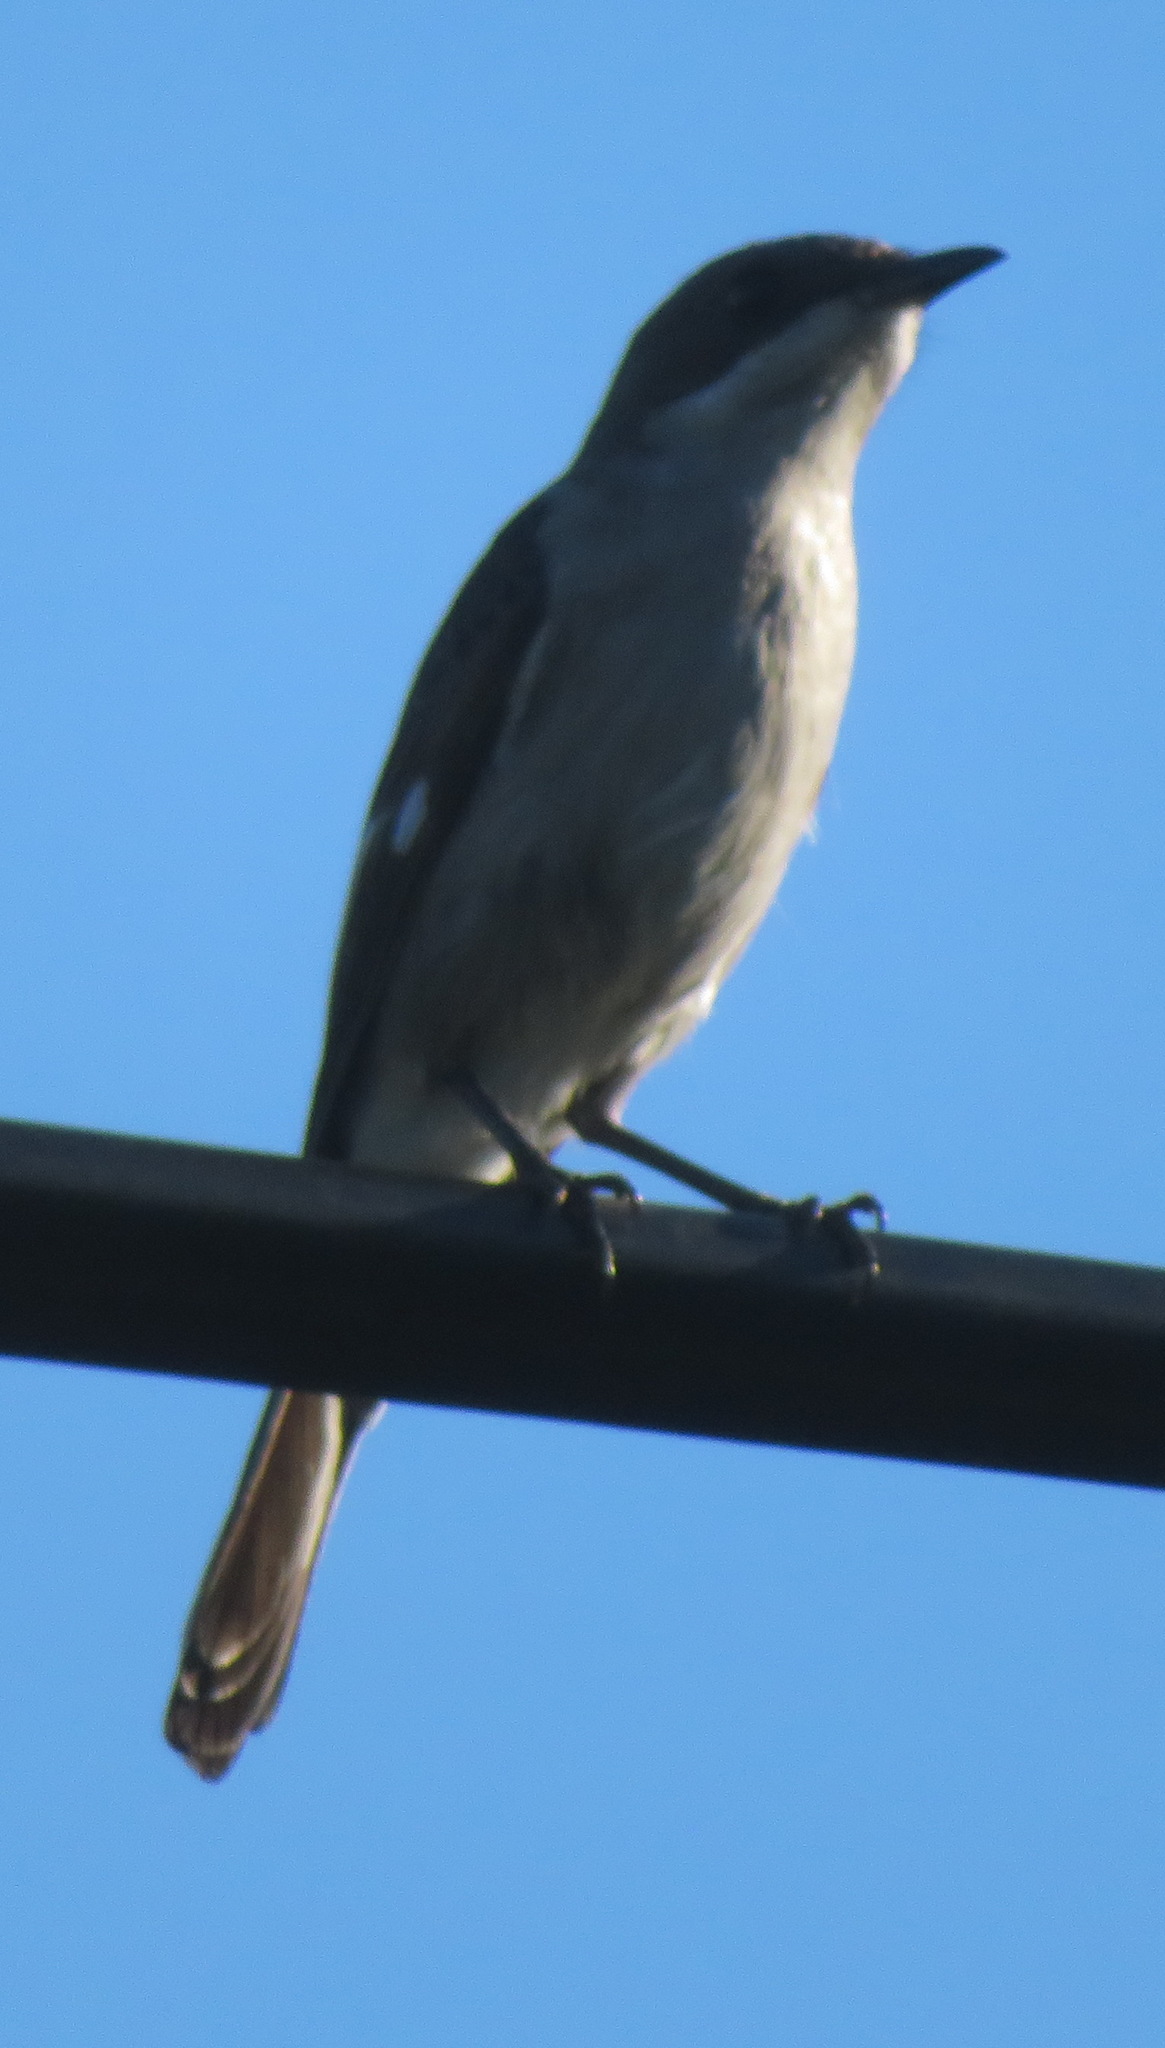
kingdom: Animalia
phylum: Chordata
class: Aves
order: Passeriformes
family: Muscicapidae
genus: Sigelus
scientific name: Sigelus silens
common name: Fiscal flycatcher
